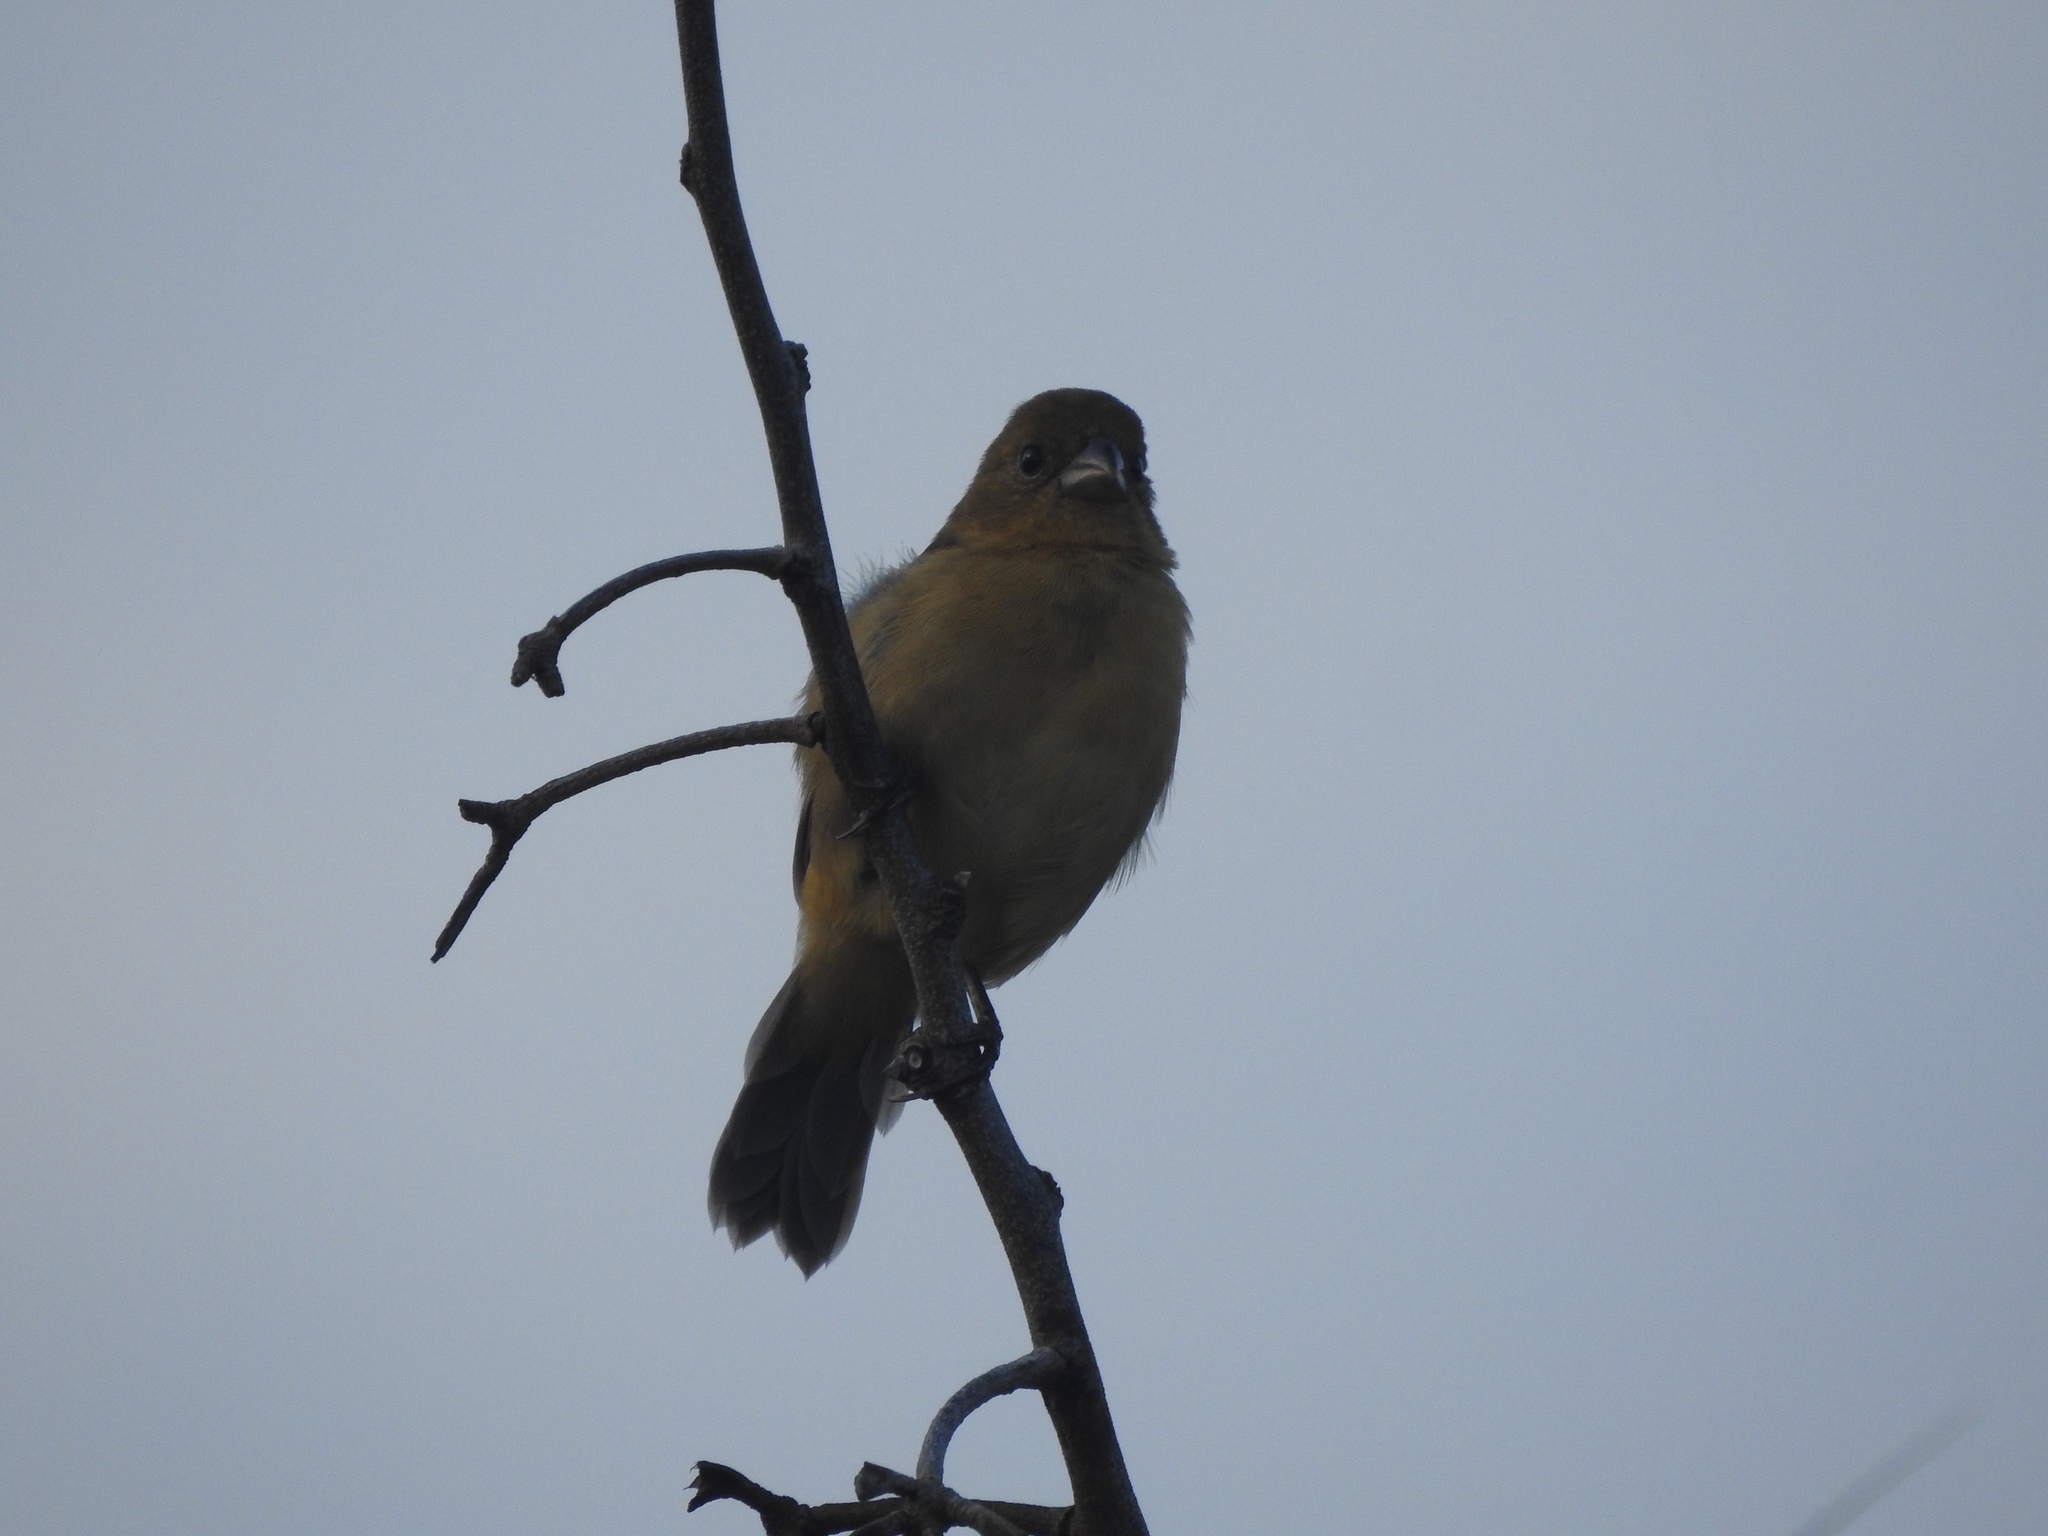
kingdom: Animalia
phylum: Chordata
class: Aves
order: Passeriformes
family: Thraupidae
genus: Sporophila
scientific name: Sporophila morelleti
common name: Morelet's seedeater
